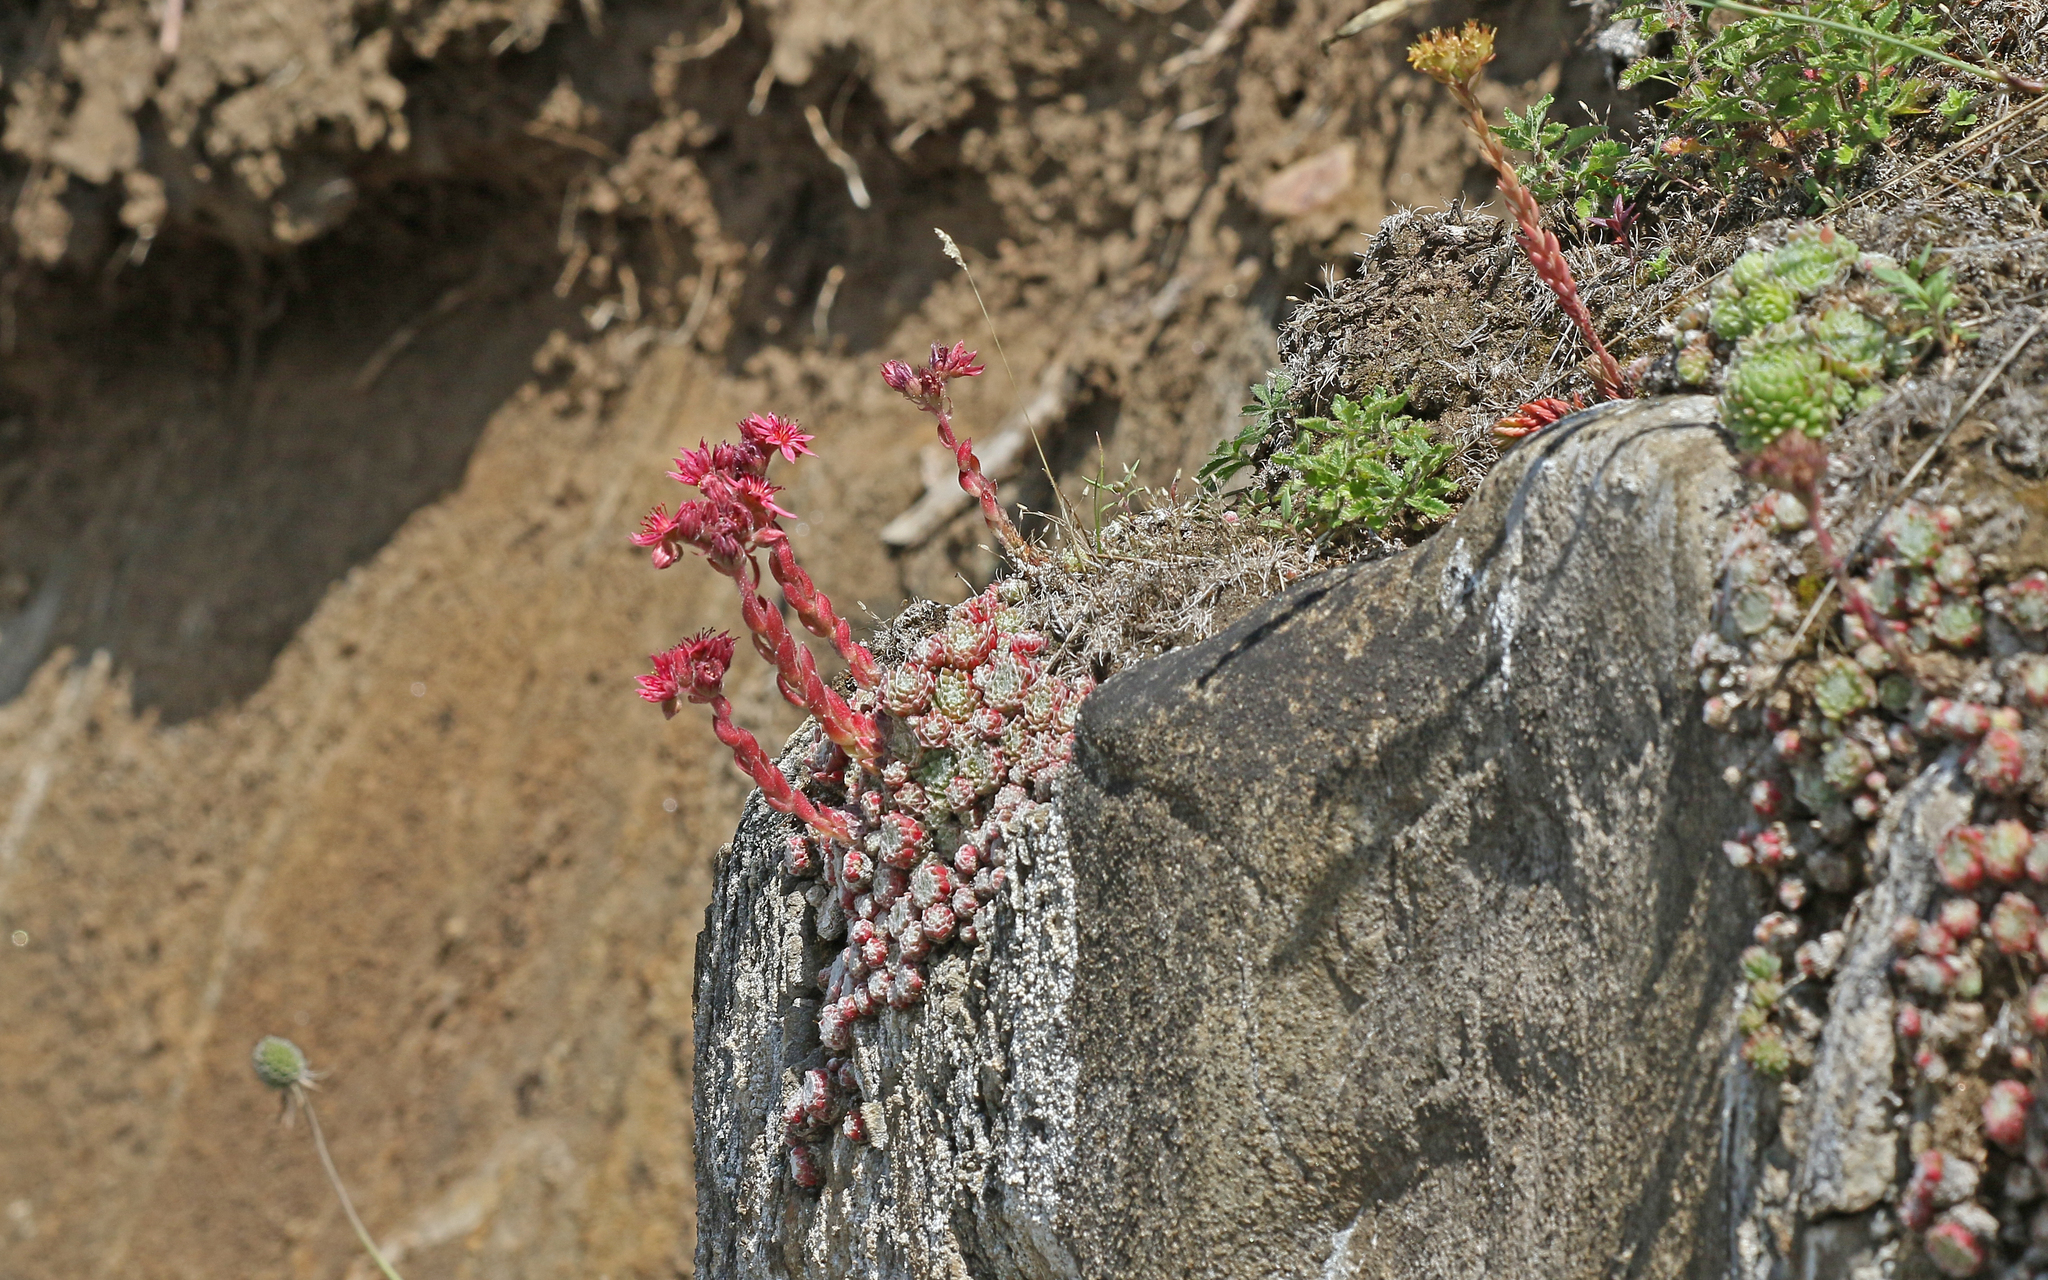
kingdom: Plantae
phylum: Tracheophyta
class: Magnoliopsida
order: Saxifragales
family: Crassulaceae
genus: Sempervivum
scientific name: Sempervivum arachnoideum
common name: Cobweb house-leek
